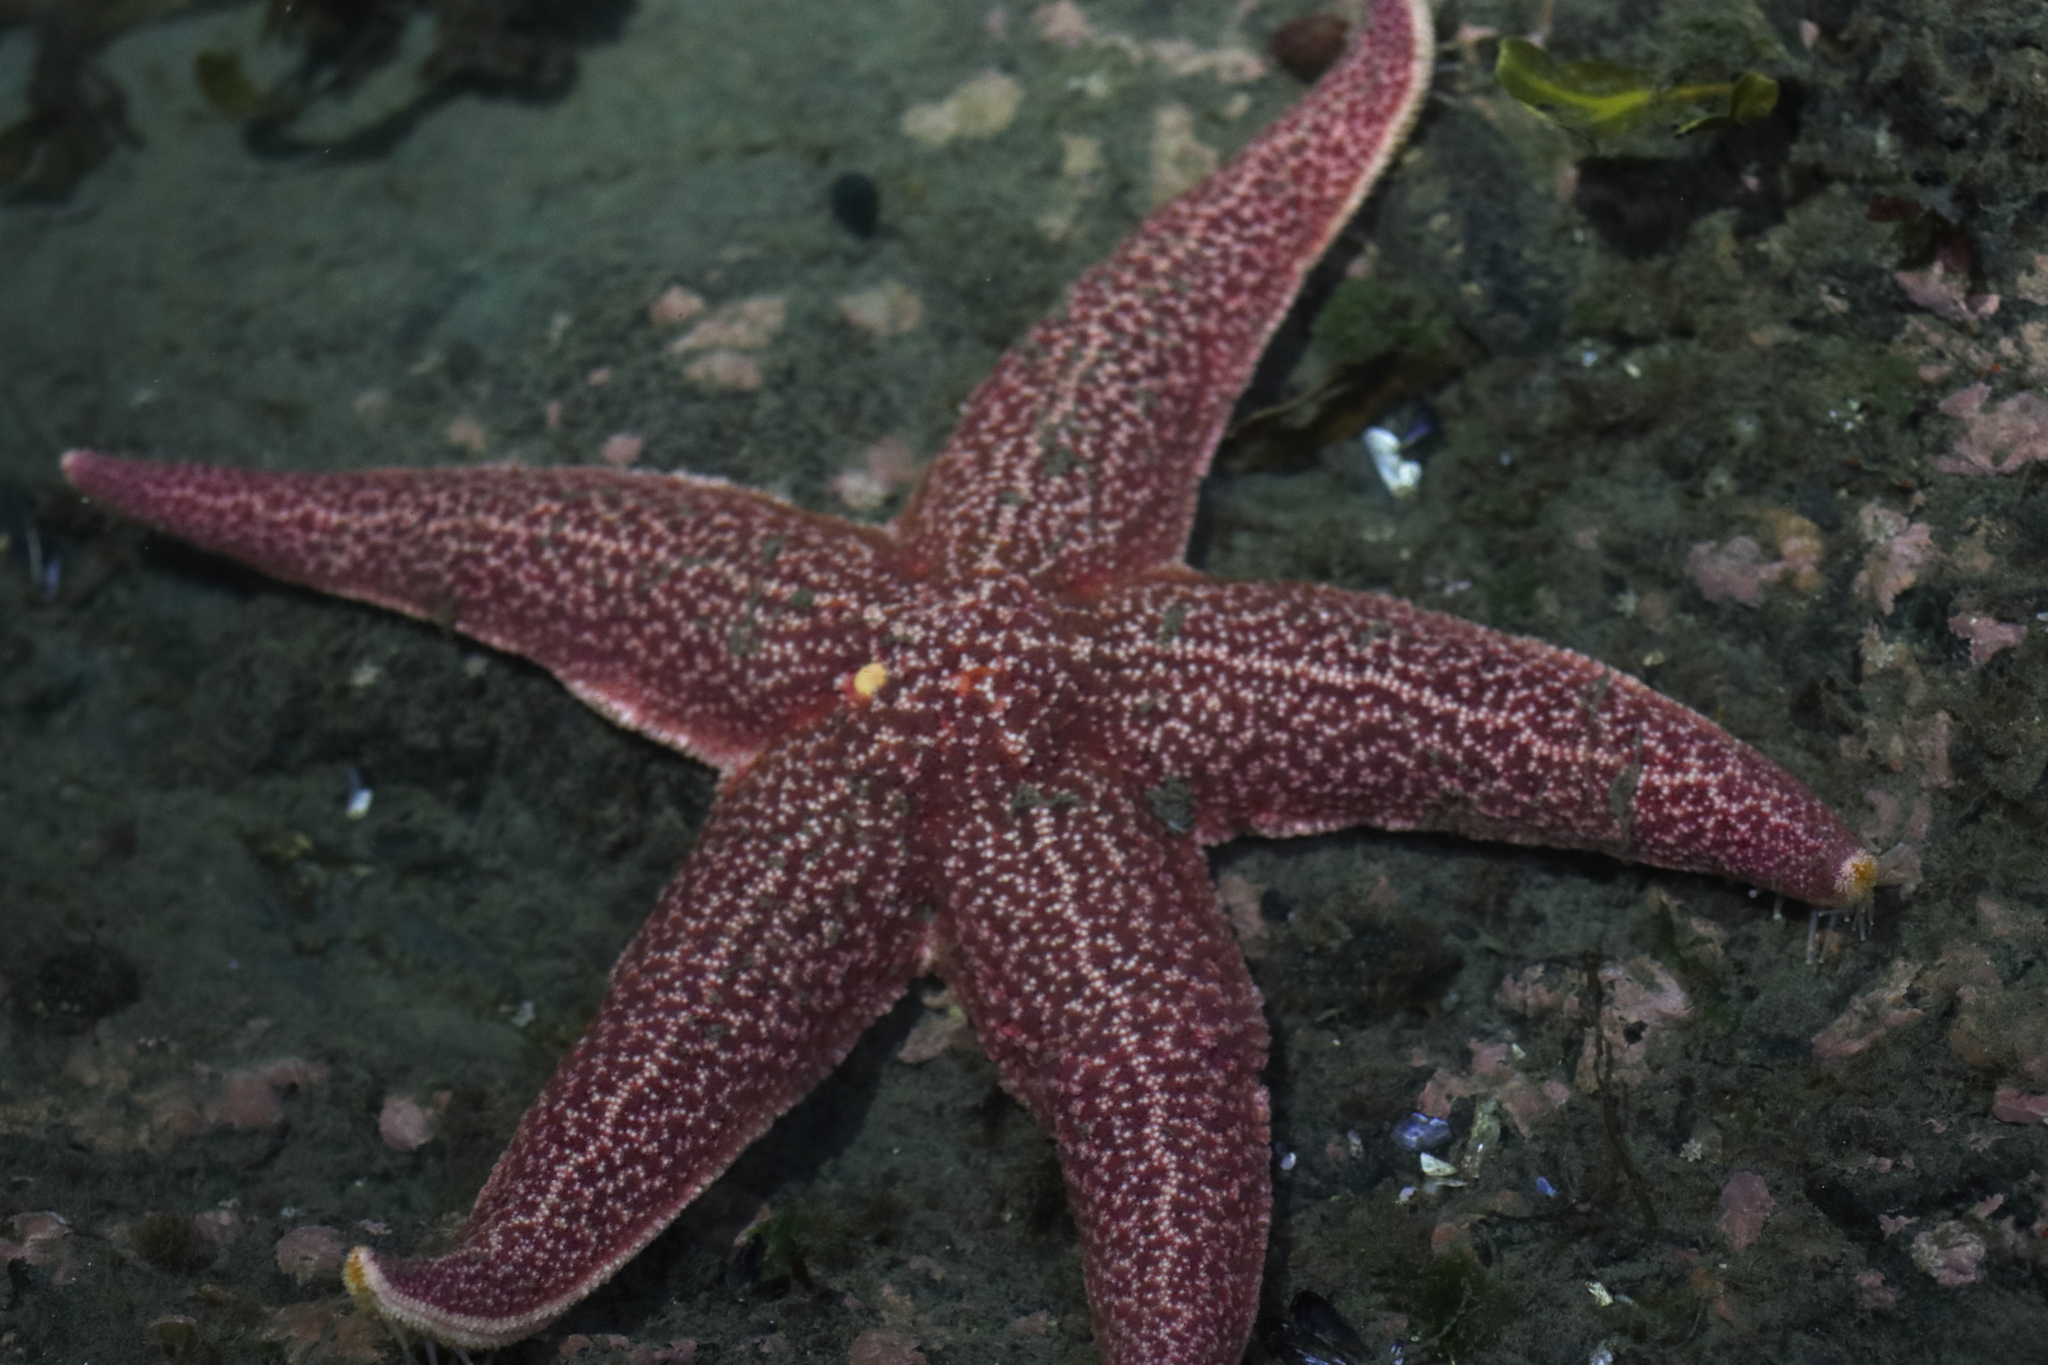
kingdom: Animalia
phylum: Echinodermata
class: Asteroidea
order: Forcipulatida
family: Asteriidae
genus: Asterias
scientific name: Asterias amurensis
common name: Flat-bottomed star
